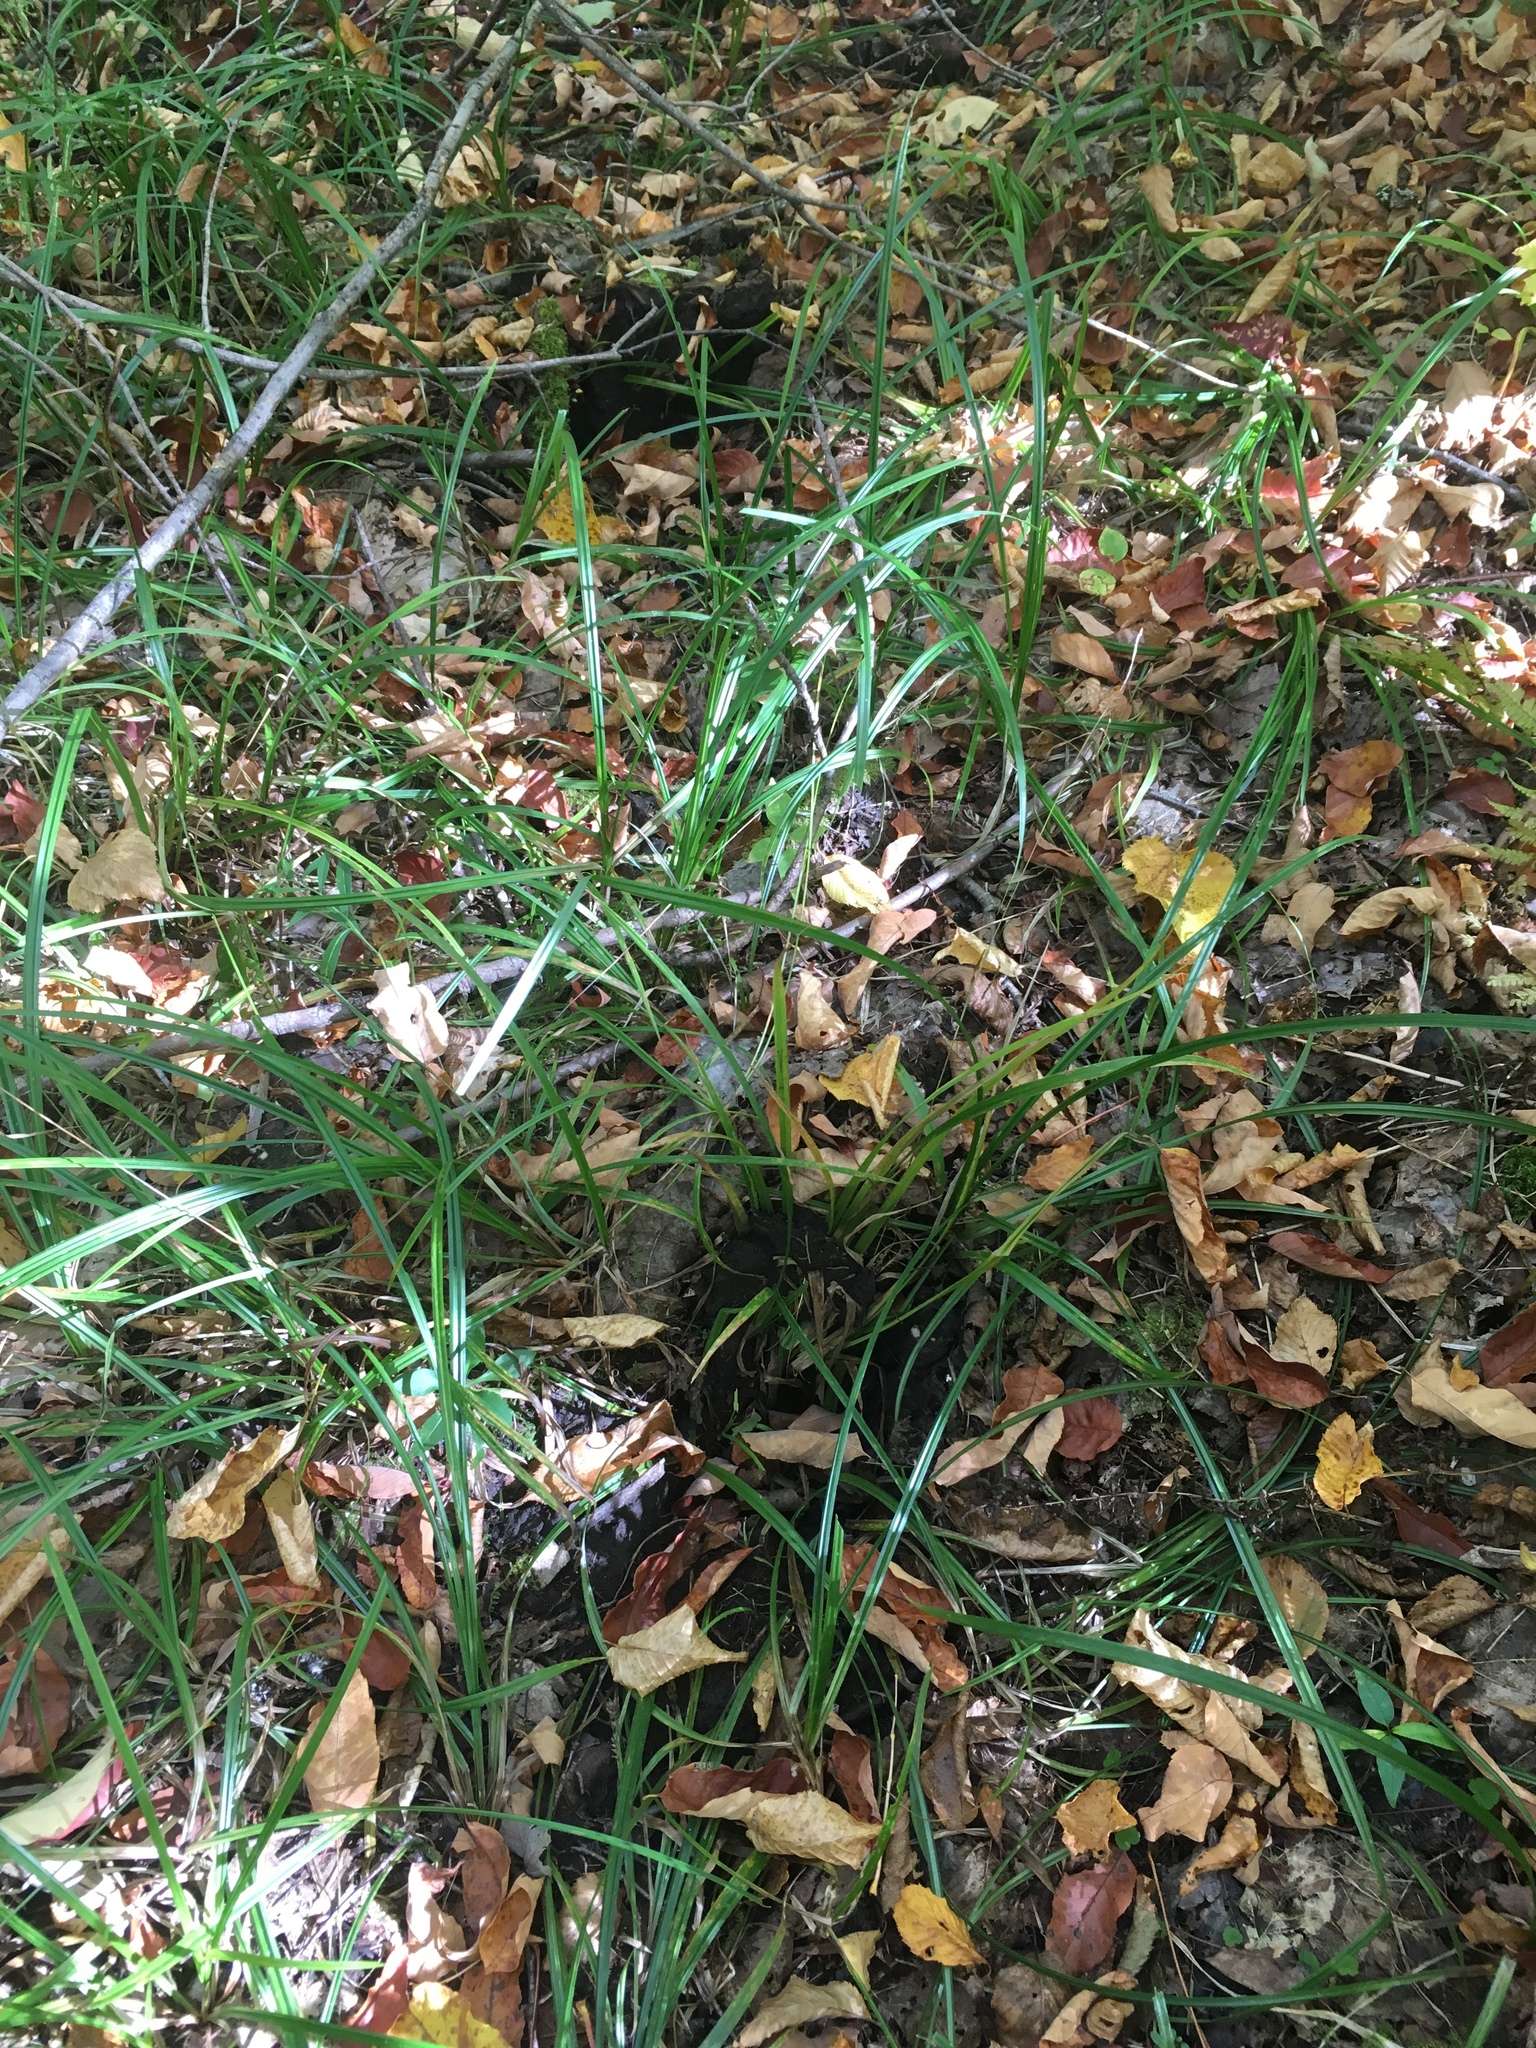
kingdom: Animalia
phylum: Chordata
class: Mammalia
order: Artiodactyla
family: Cervidae
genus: Alces
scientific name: Alces alces
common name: Moose
